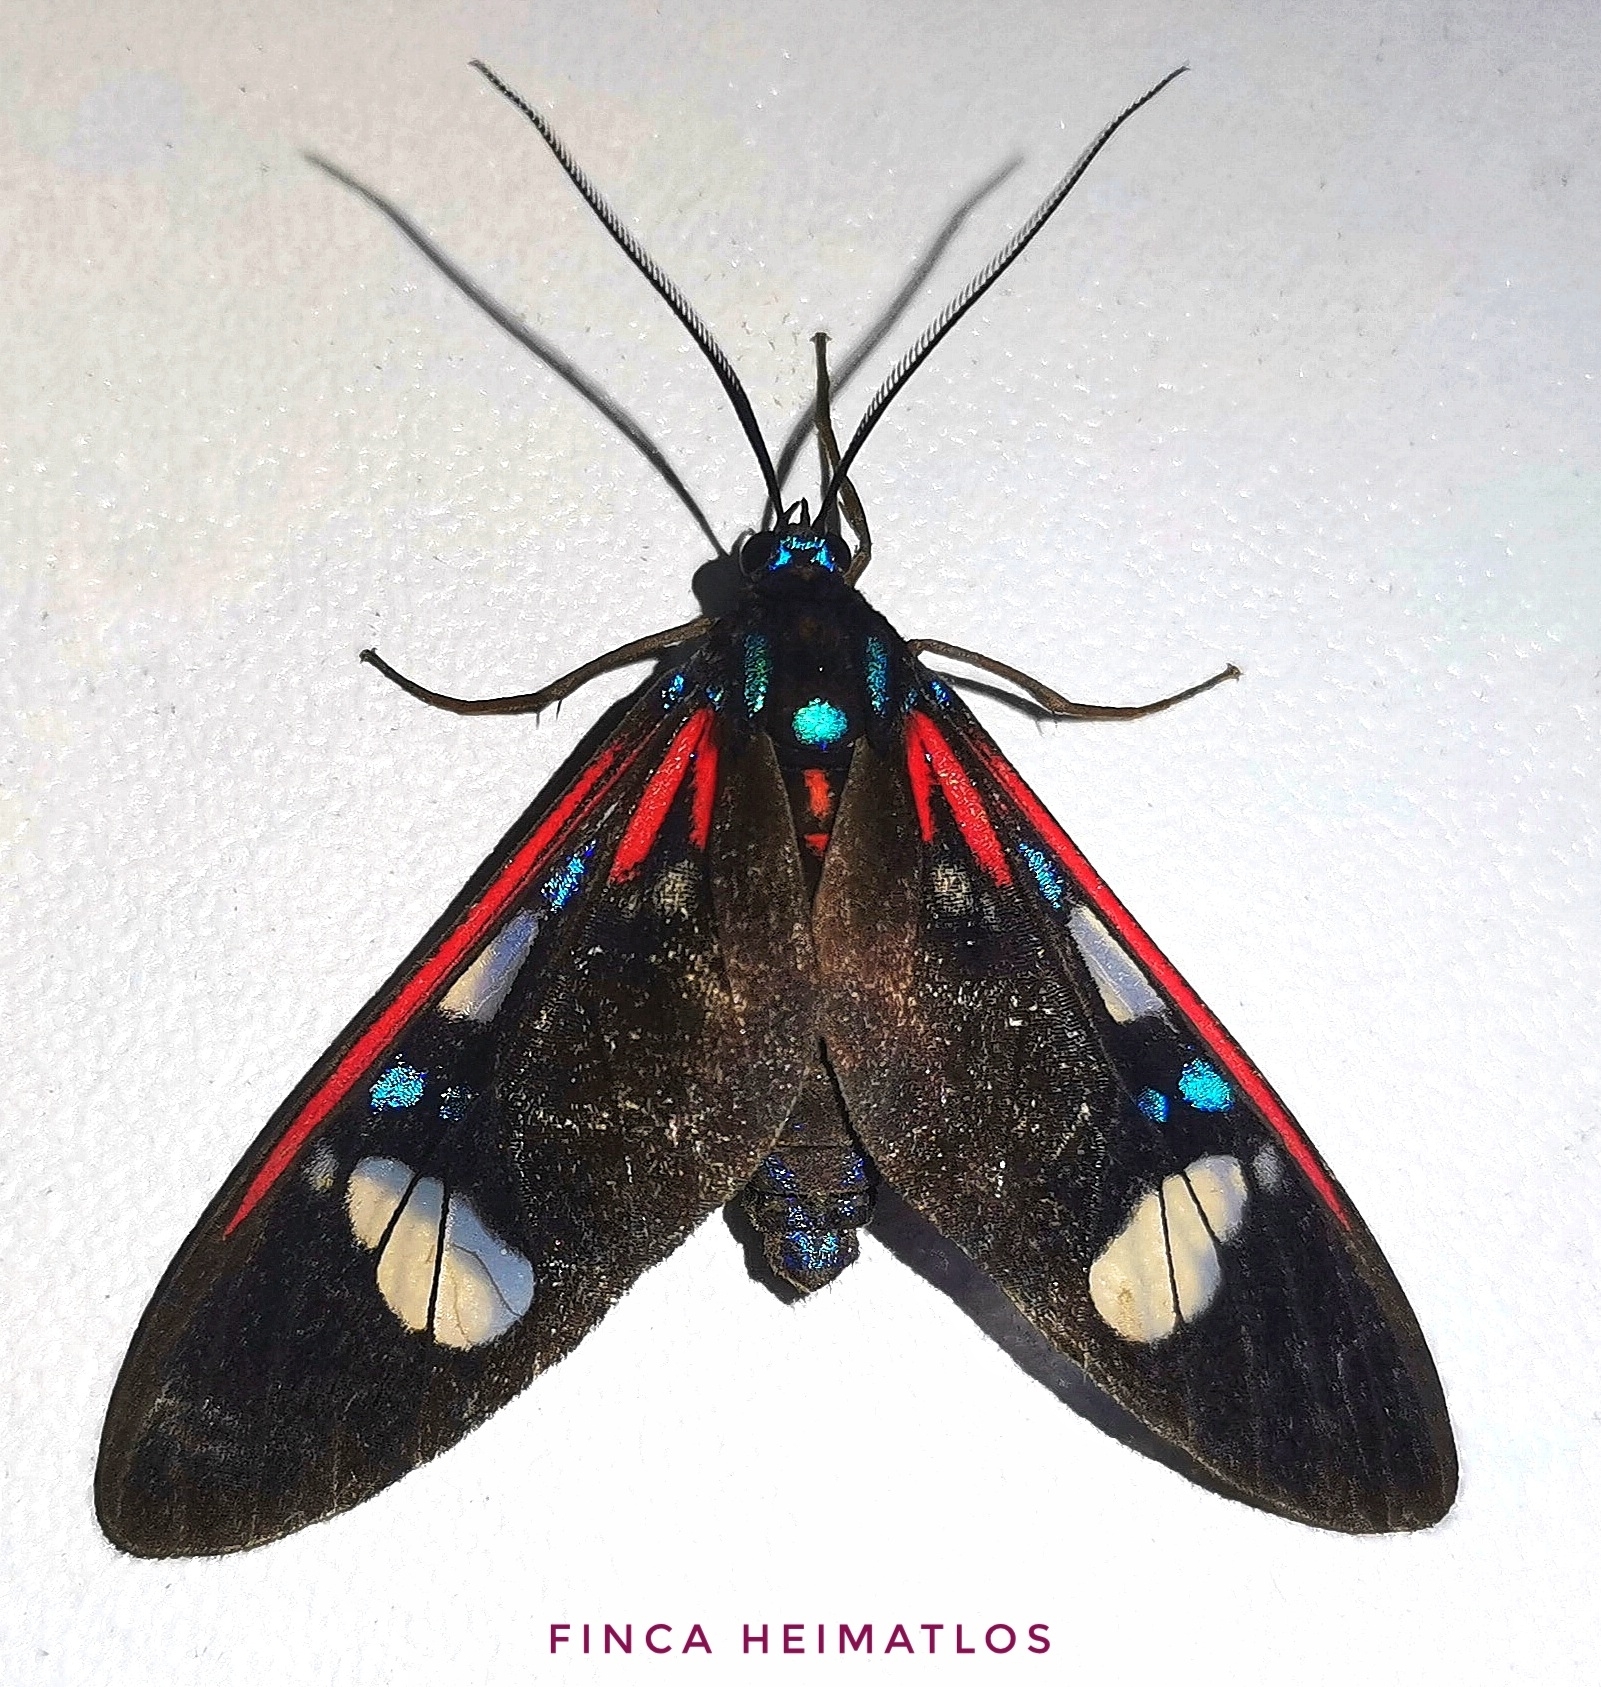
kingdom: Animalia
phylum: Arthropoda
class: Insecta
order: Lepidoptera
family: Erebidae
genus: Euclera
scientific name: Euclera meones
